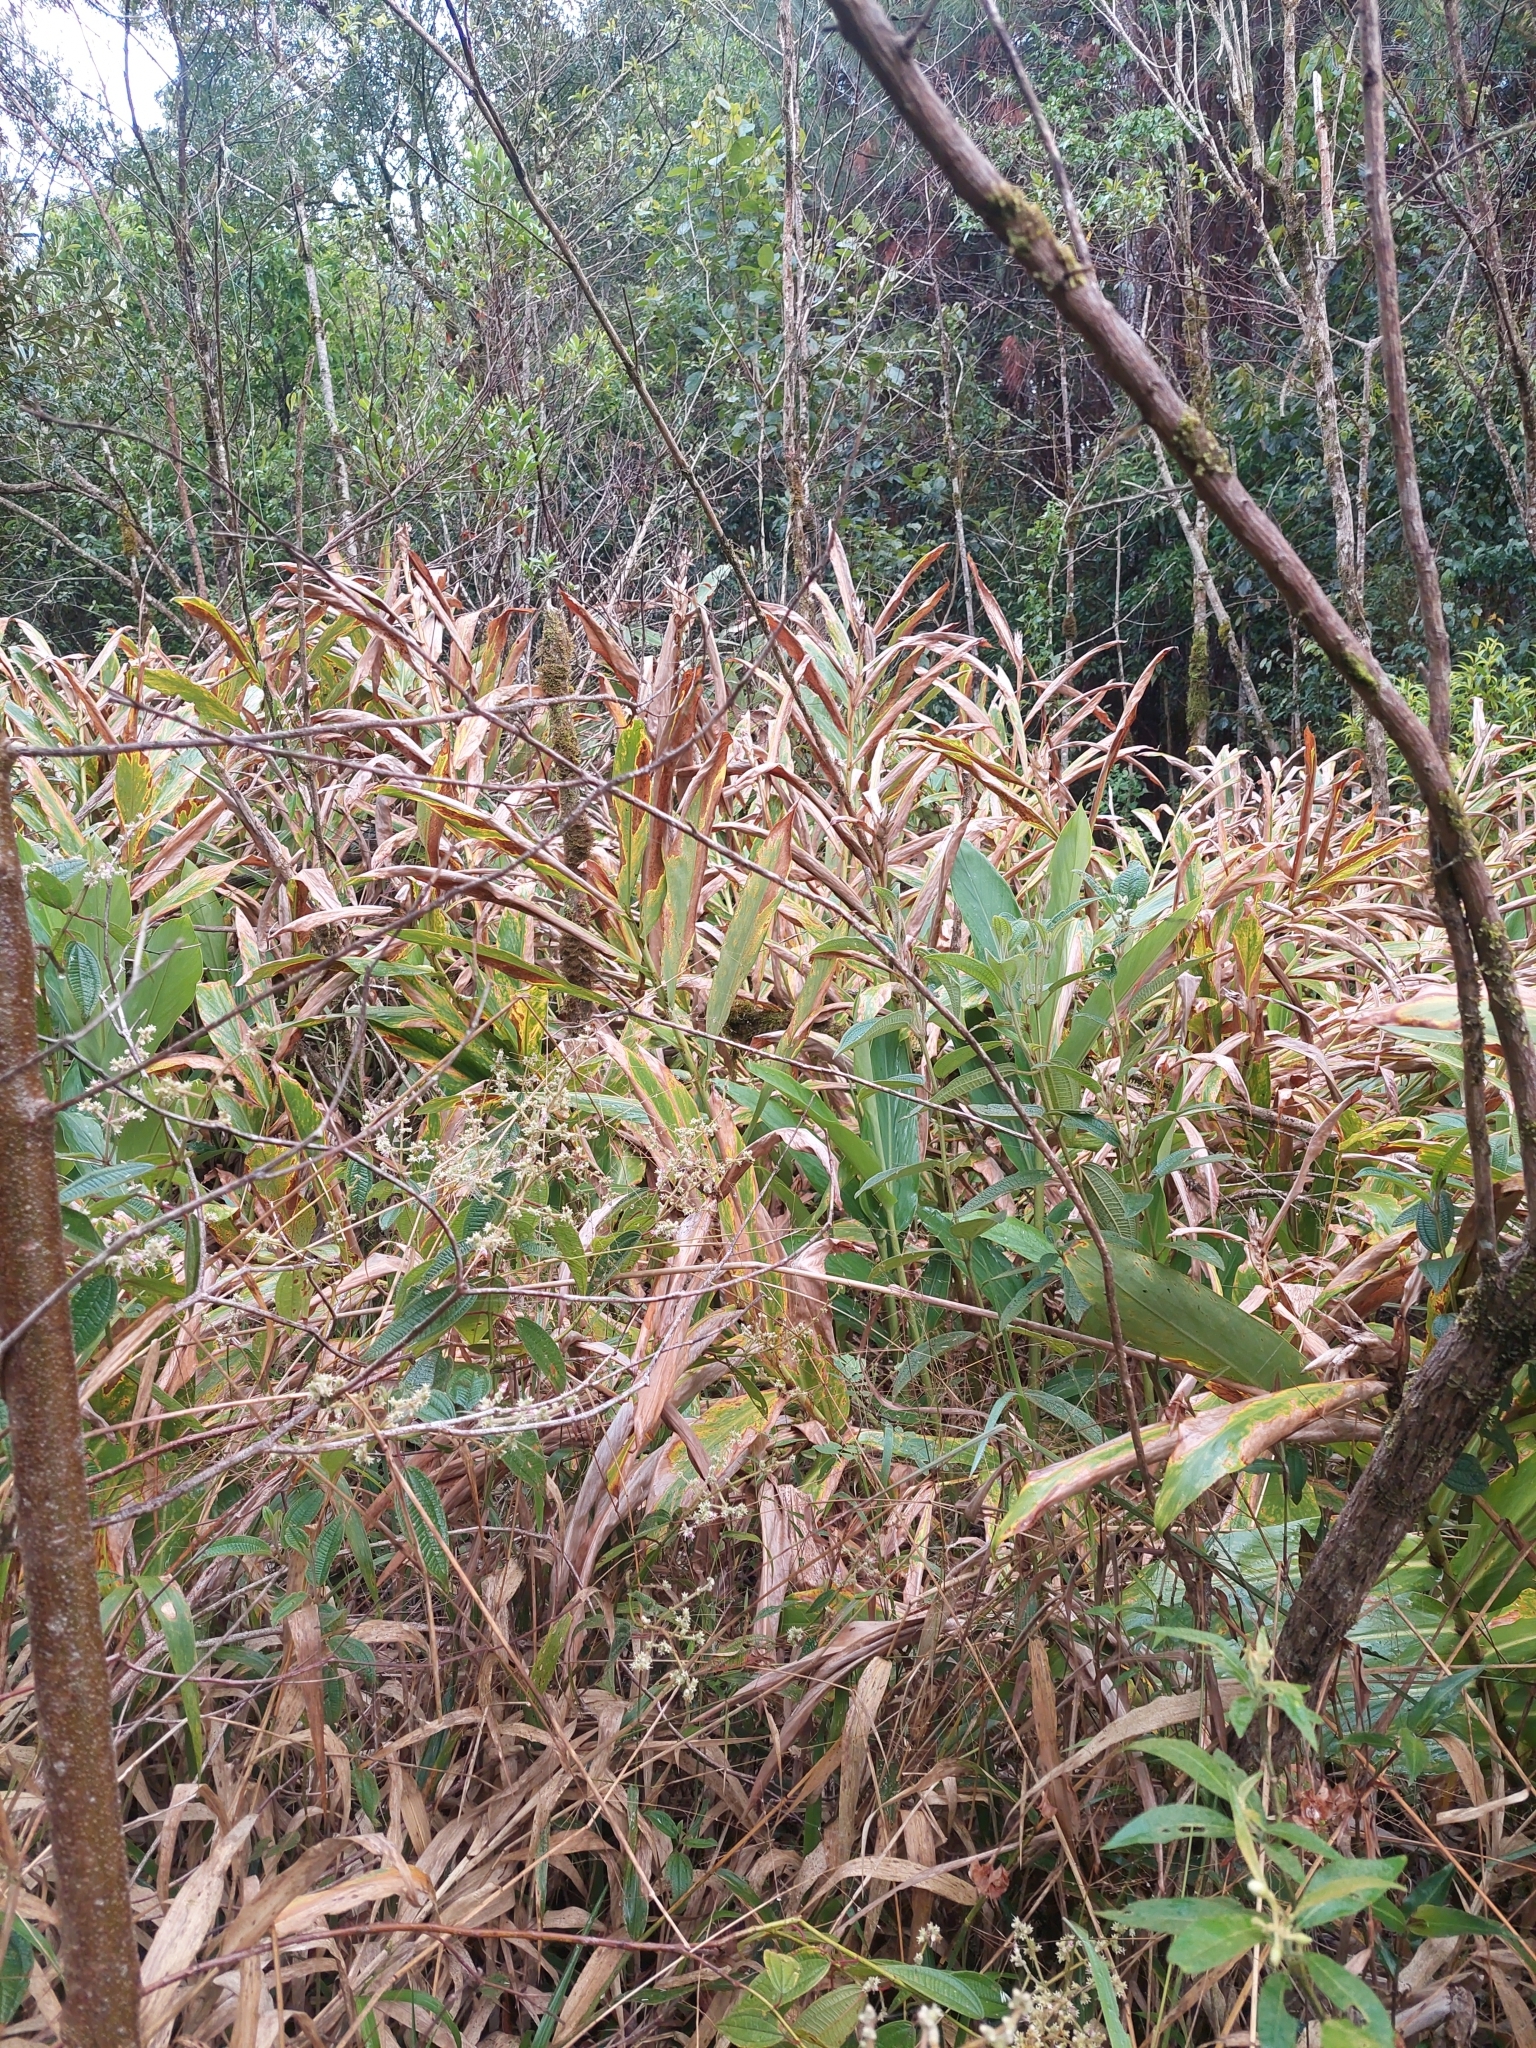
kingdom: Plantae
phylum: Tracheophyta
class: Liliopsida
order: Zingiberales
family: Zingiberaceae
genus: Hedychium
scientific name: Hedychium coronarium
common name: White garland-lily
